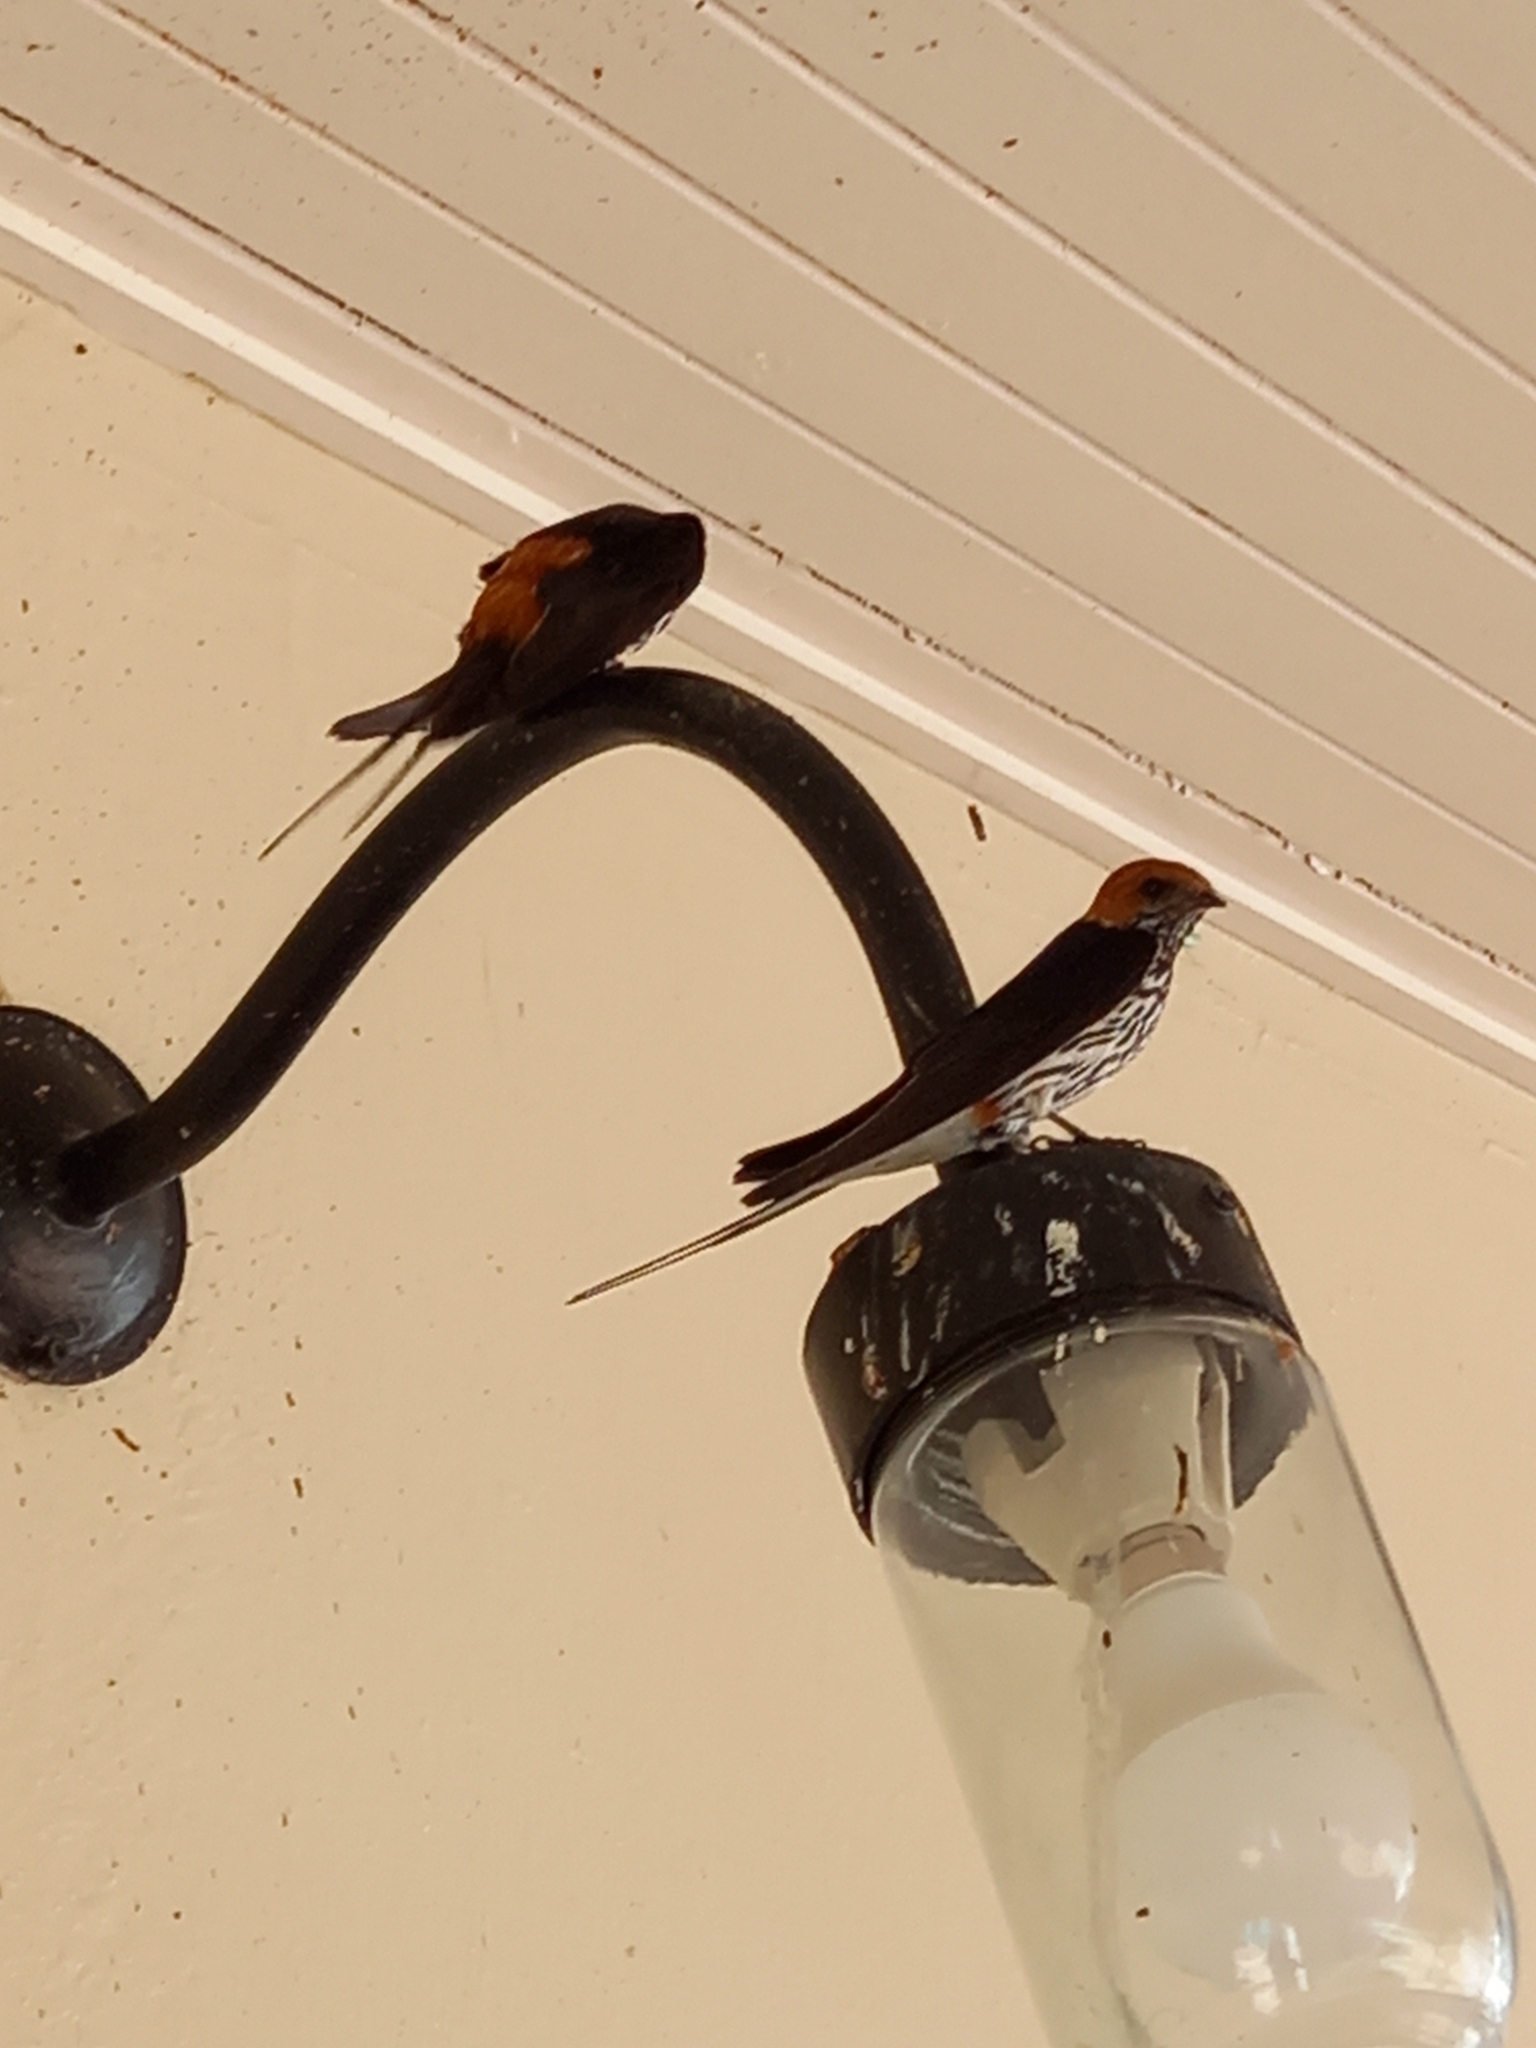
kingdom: Animalia
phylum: Chordata
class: Aves
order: Passeriformes
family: Hirundinidae
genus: Cecropis
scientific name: Cecropis abyssinica
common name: Lesser striped-swallow
